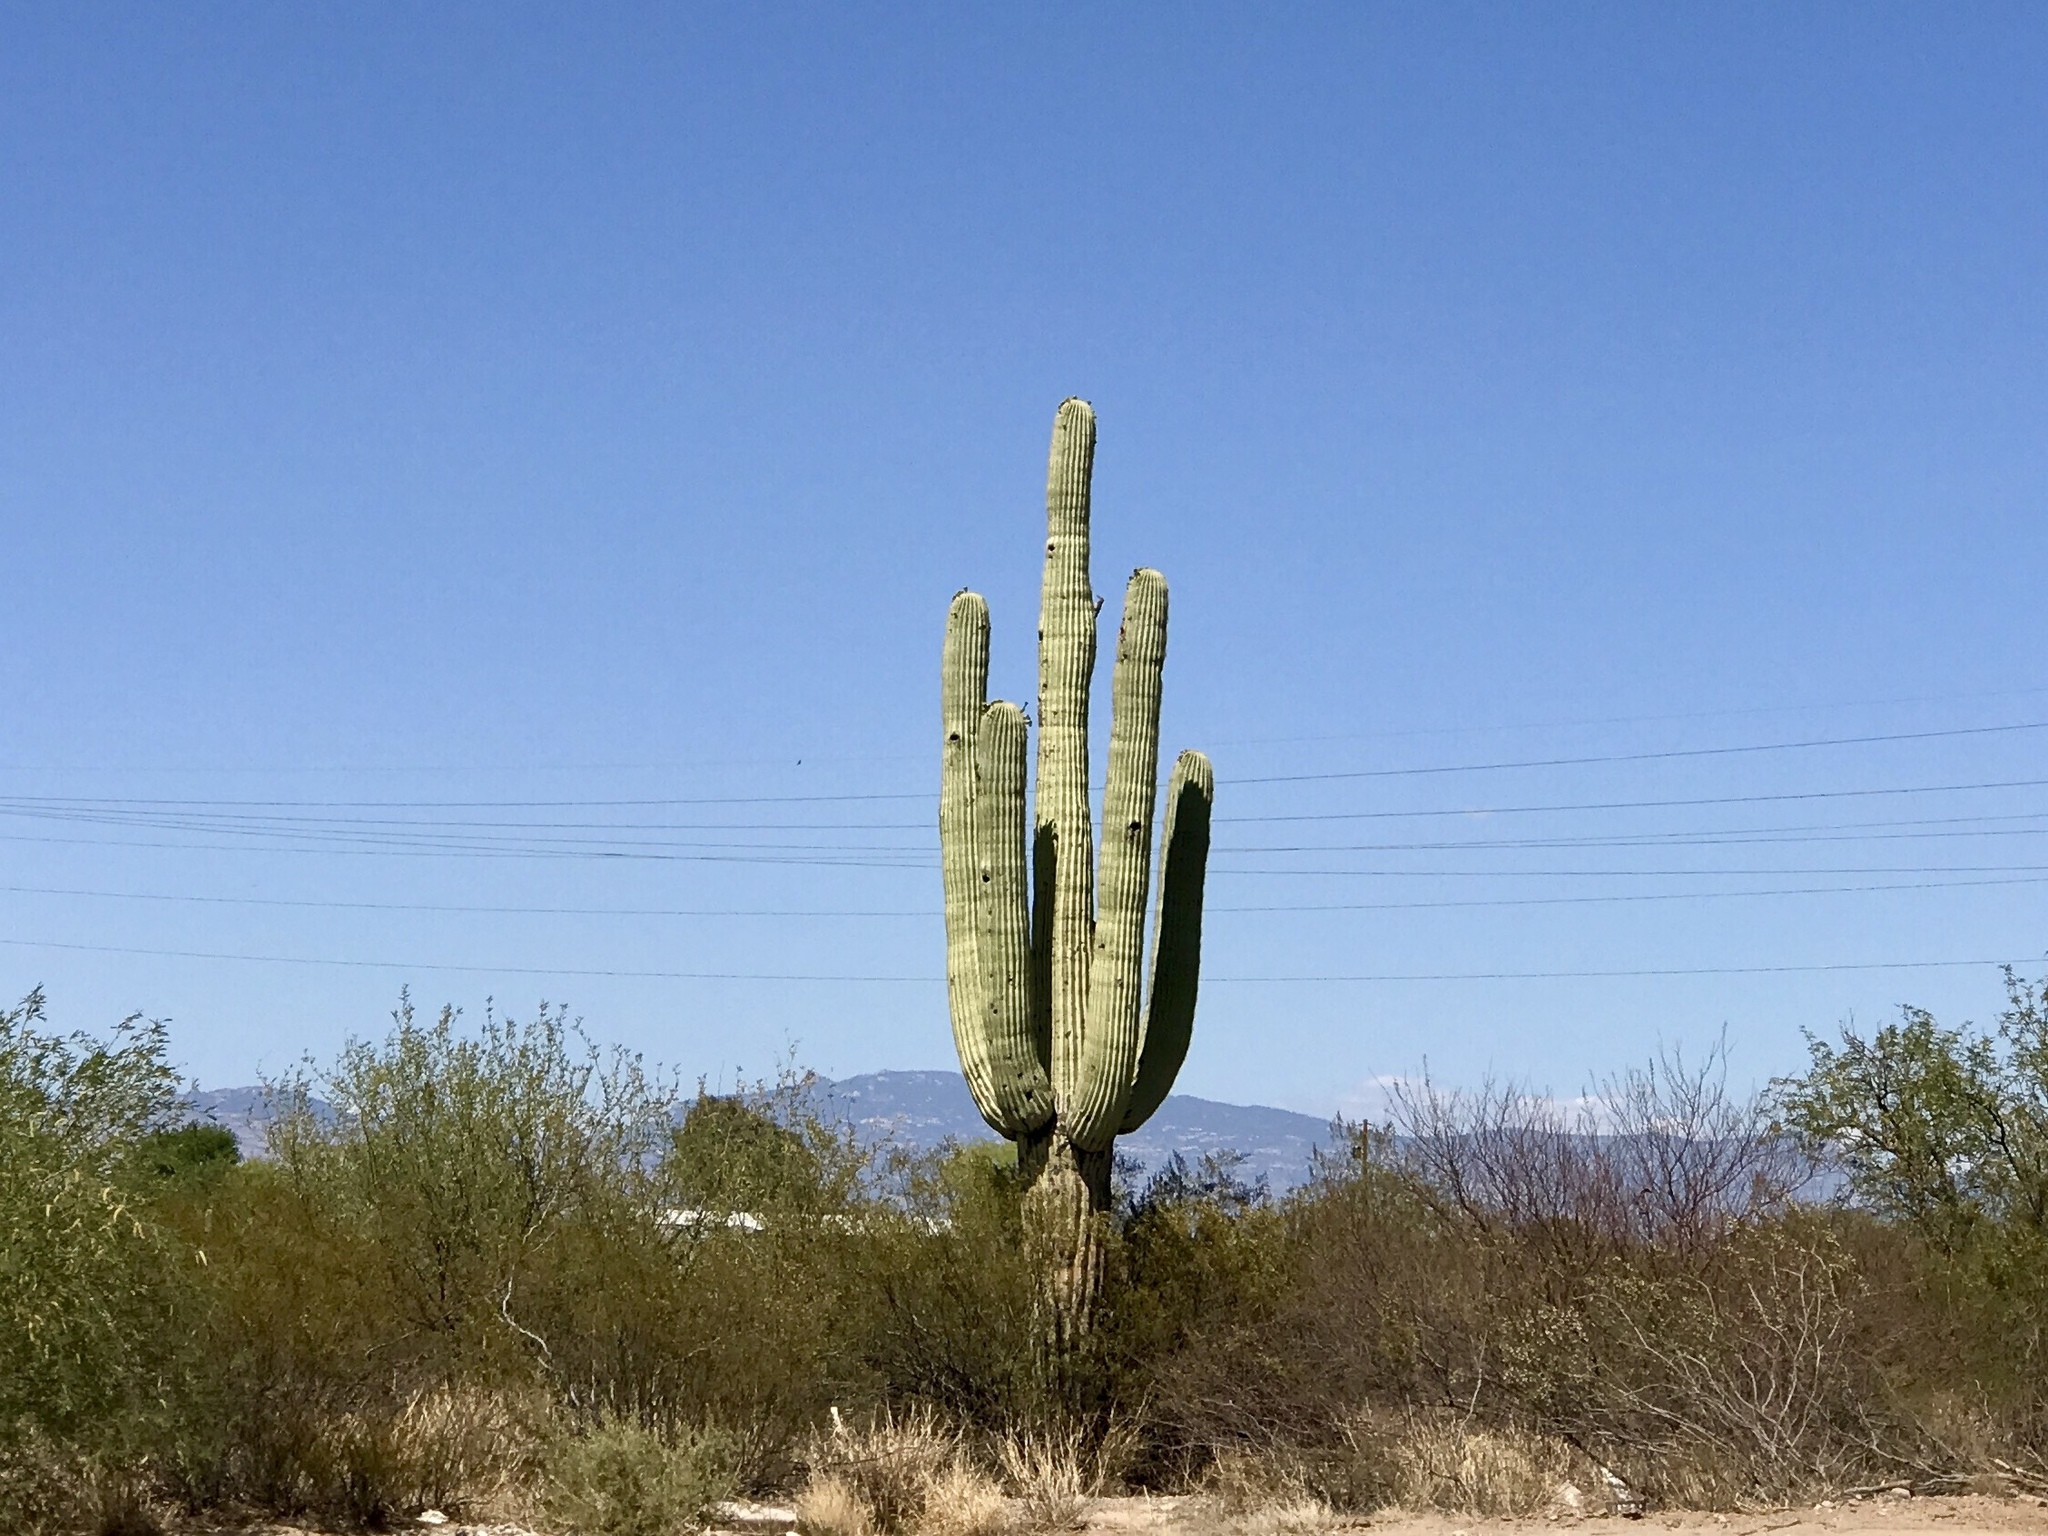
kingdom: Plantae
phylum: Tracheophyta
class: Magnoliopsida
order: Caryophyllales
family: Cactaceae
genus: Carnegiea
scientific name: Carnegiea gigantea
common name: Saguaro
